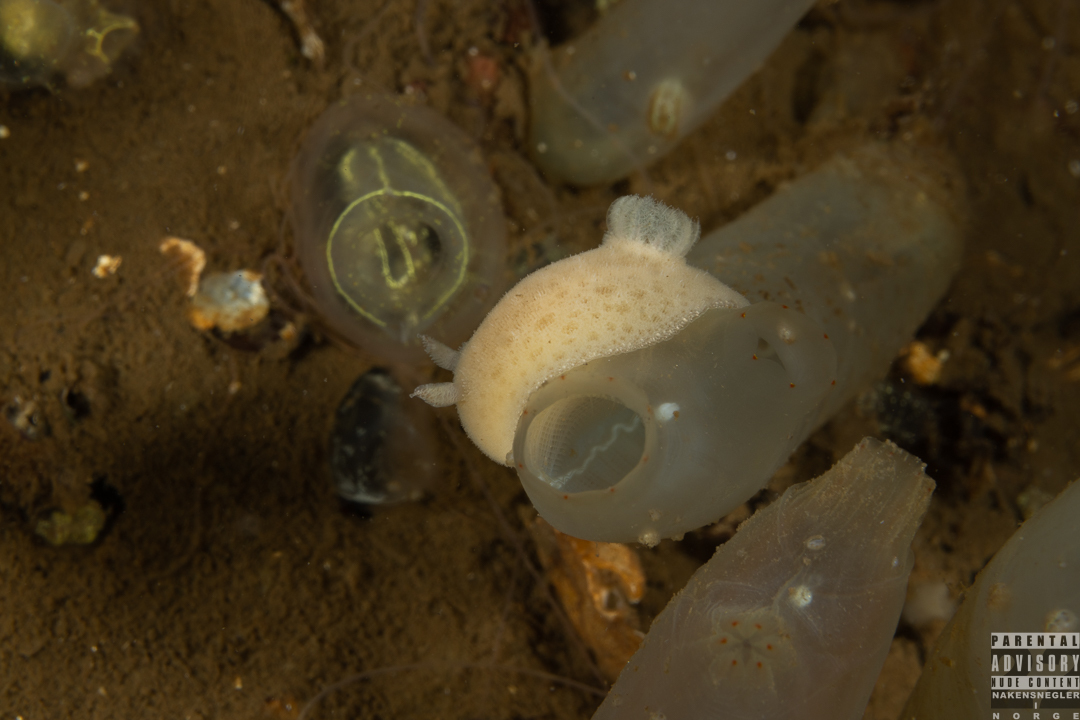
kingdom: Animalia
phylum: Mollusca
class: Gastropoda
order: Nudibranchia
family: Discodorididae
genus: Jorunna
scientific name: Jorunna tomentosa
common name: Grey sea slug
